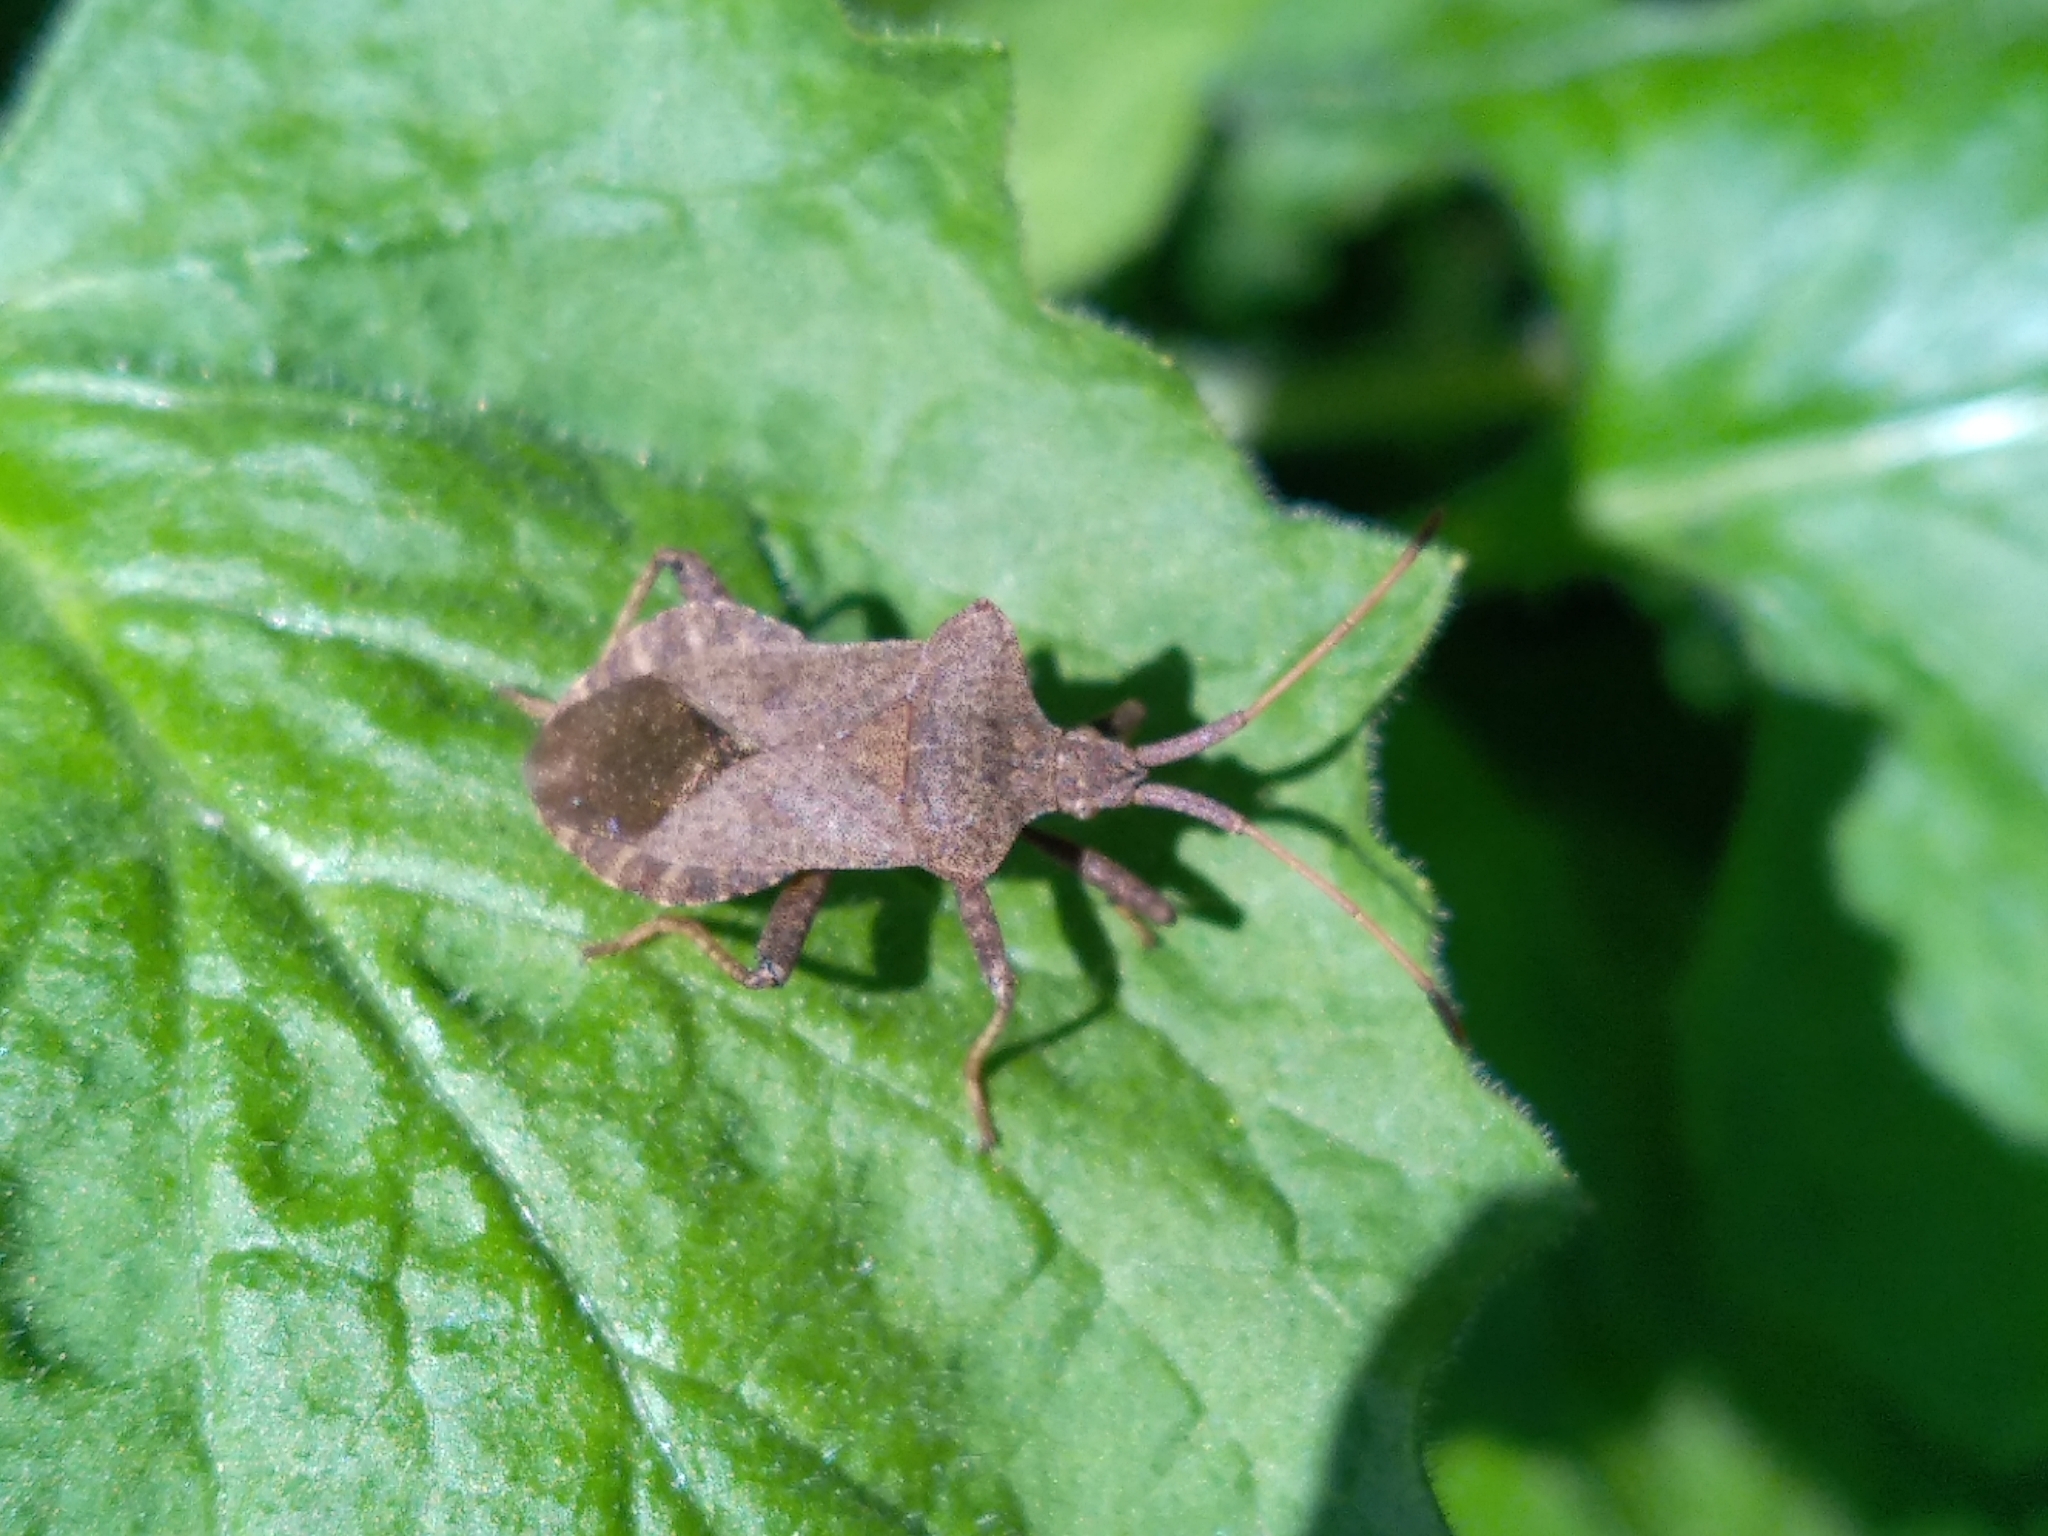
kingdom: Animalia
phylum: Arthropoda
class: Insecta
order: Hemiptera
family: Coreidae
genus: Coreus
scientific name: Coreus marginatus
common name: Dock bug
